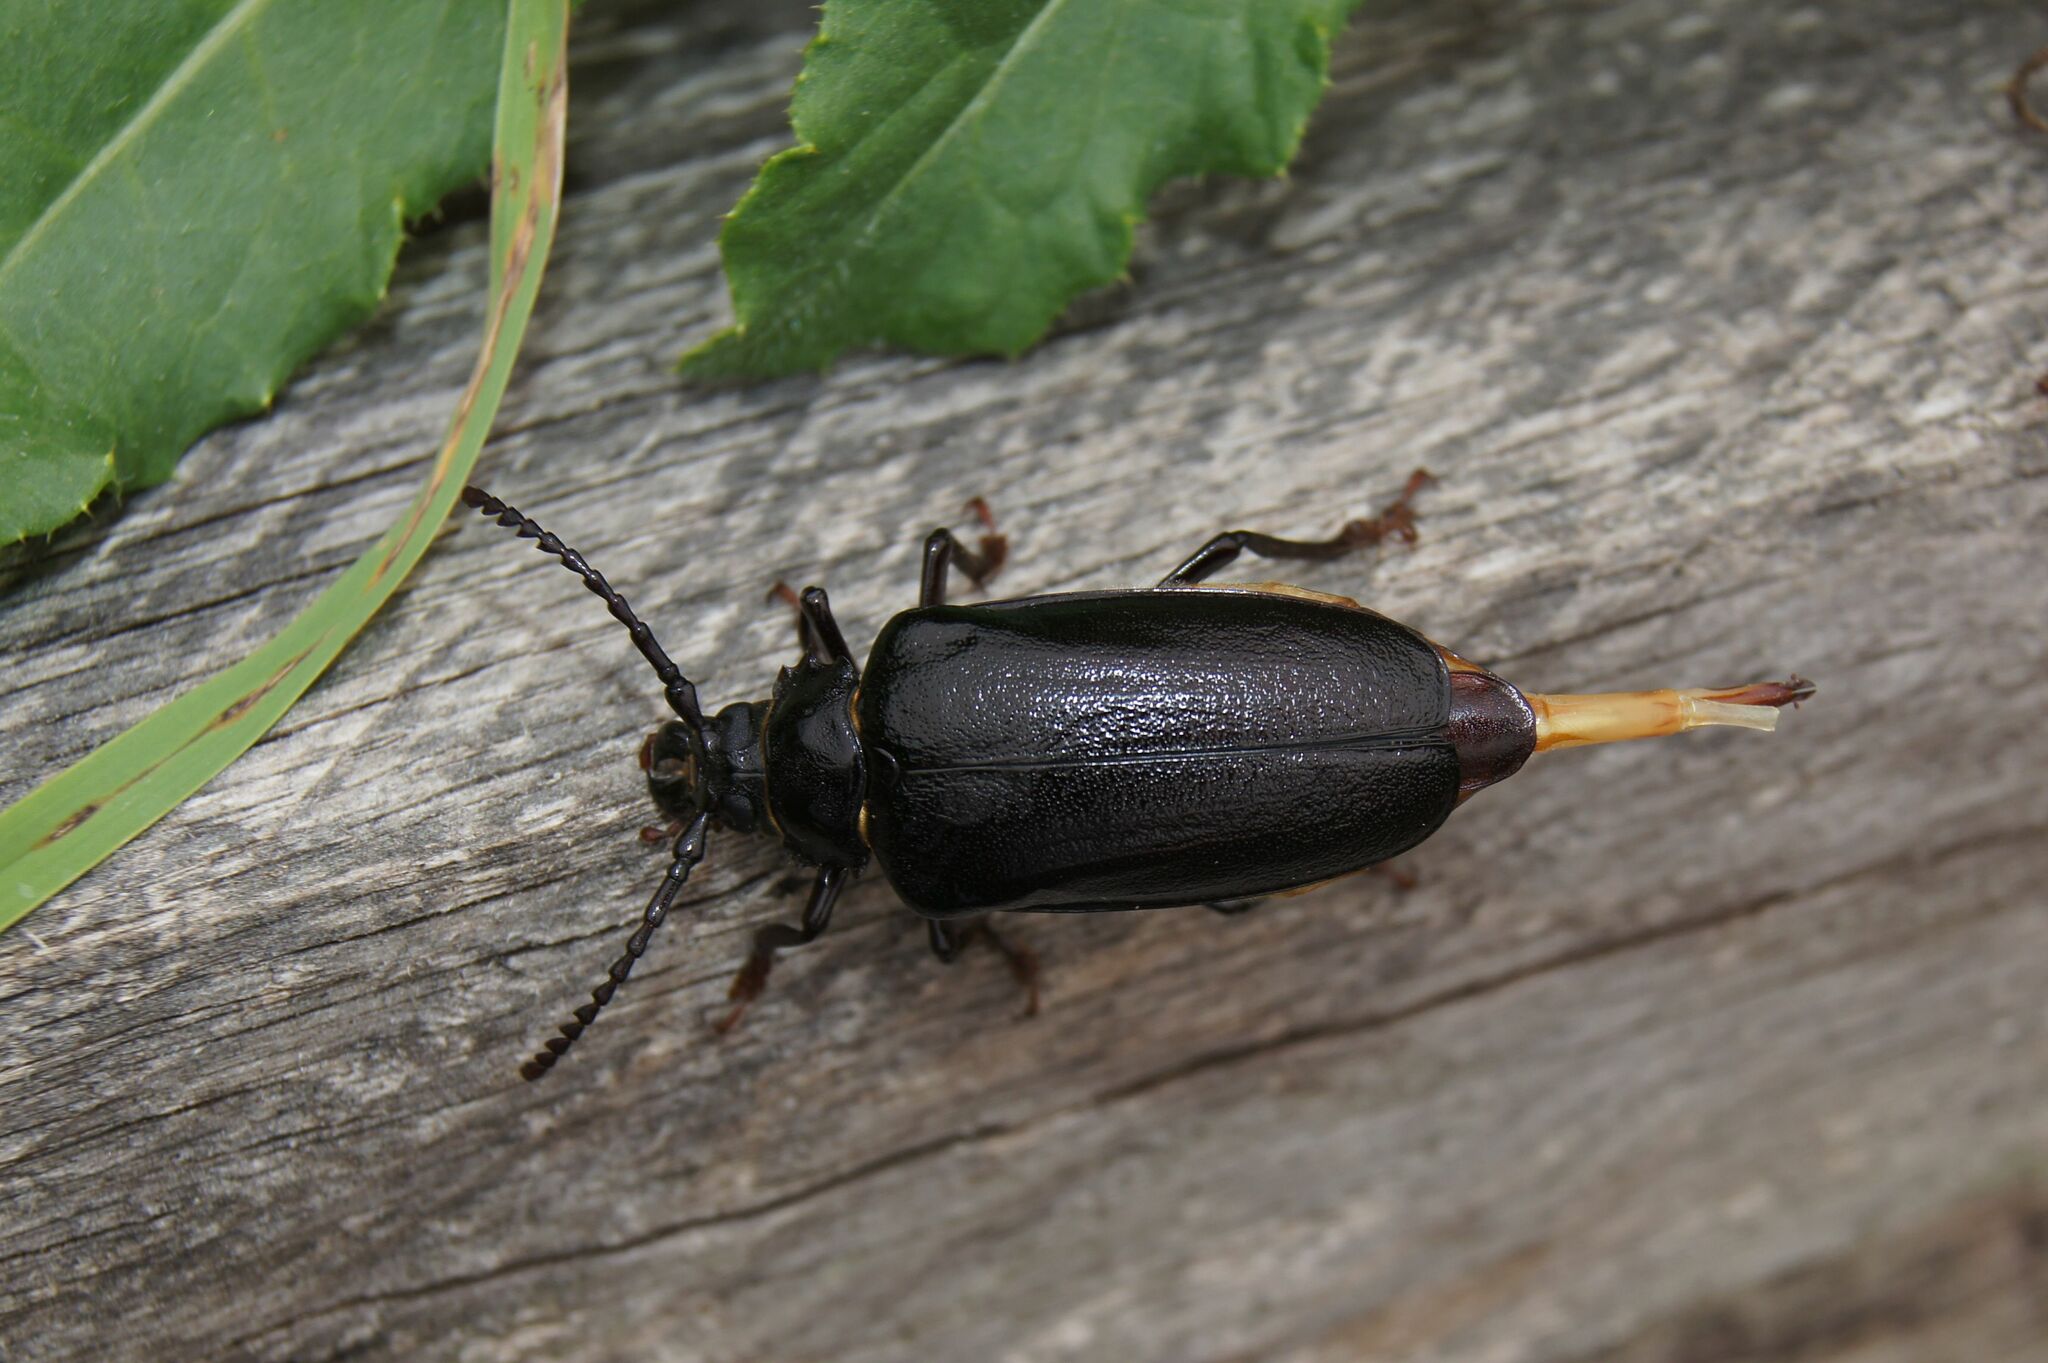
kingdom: Animalia
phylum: Arthropoda
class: Insecta
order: Coleoptera
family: Cerambycidae
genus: Prionus
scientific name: Prionus coriarius
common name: Tanner beetle
